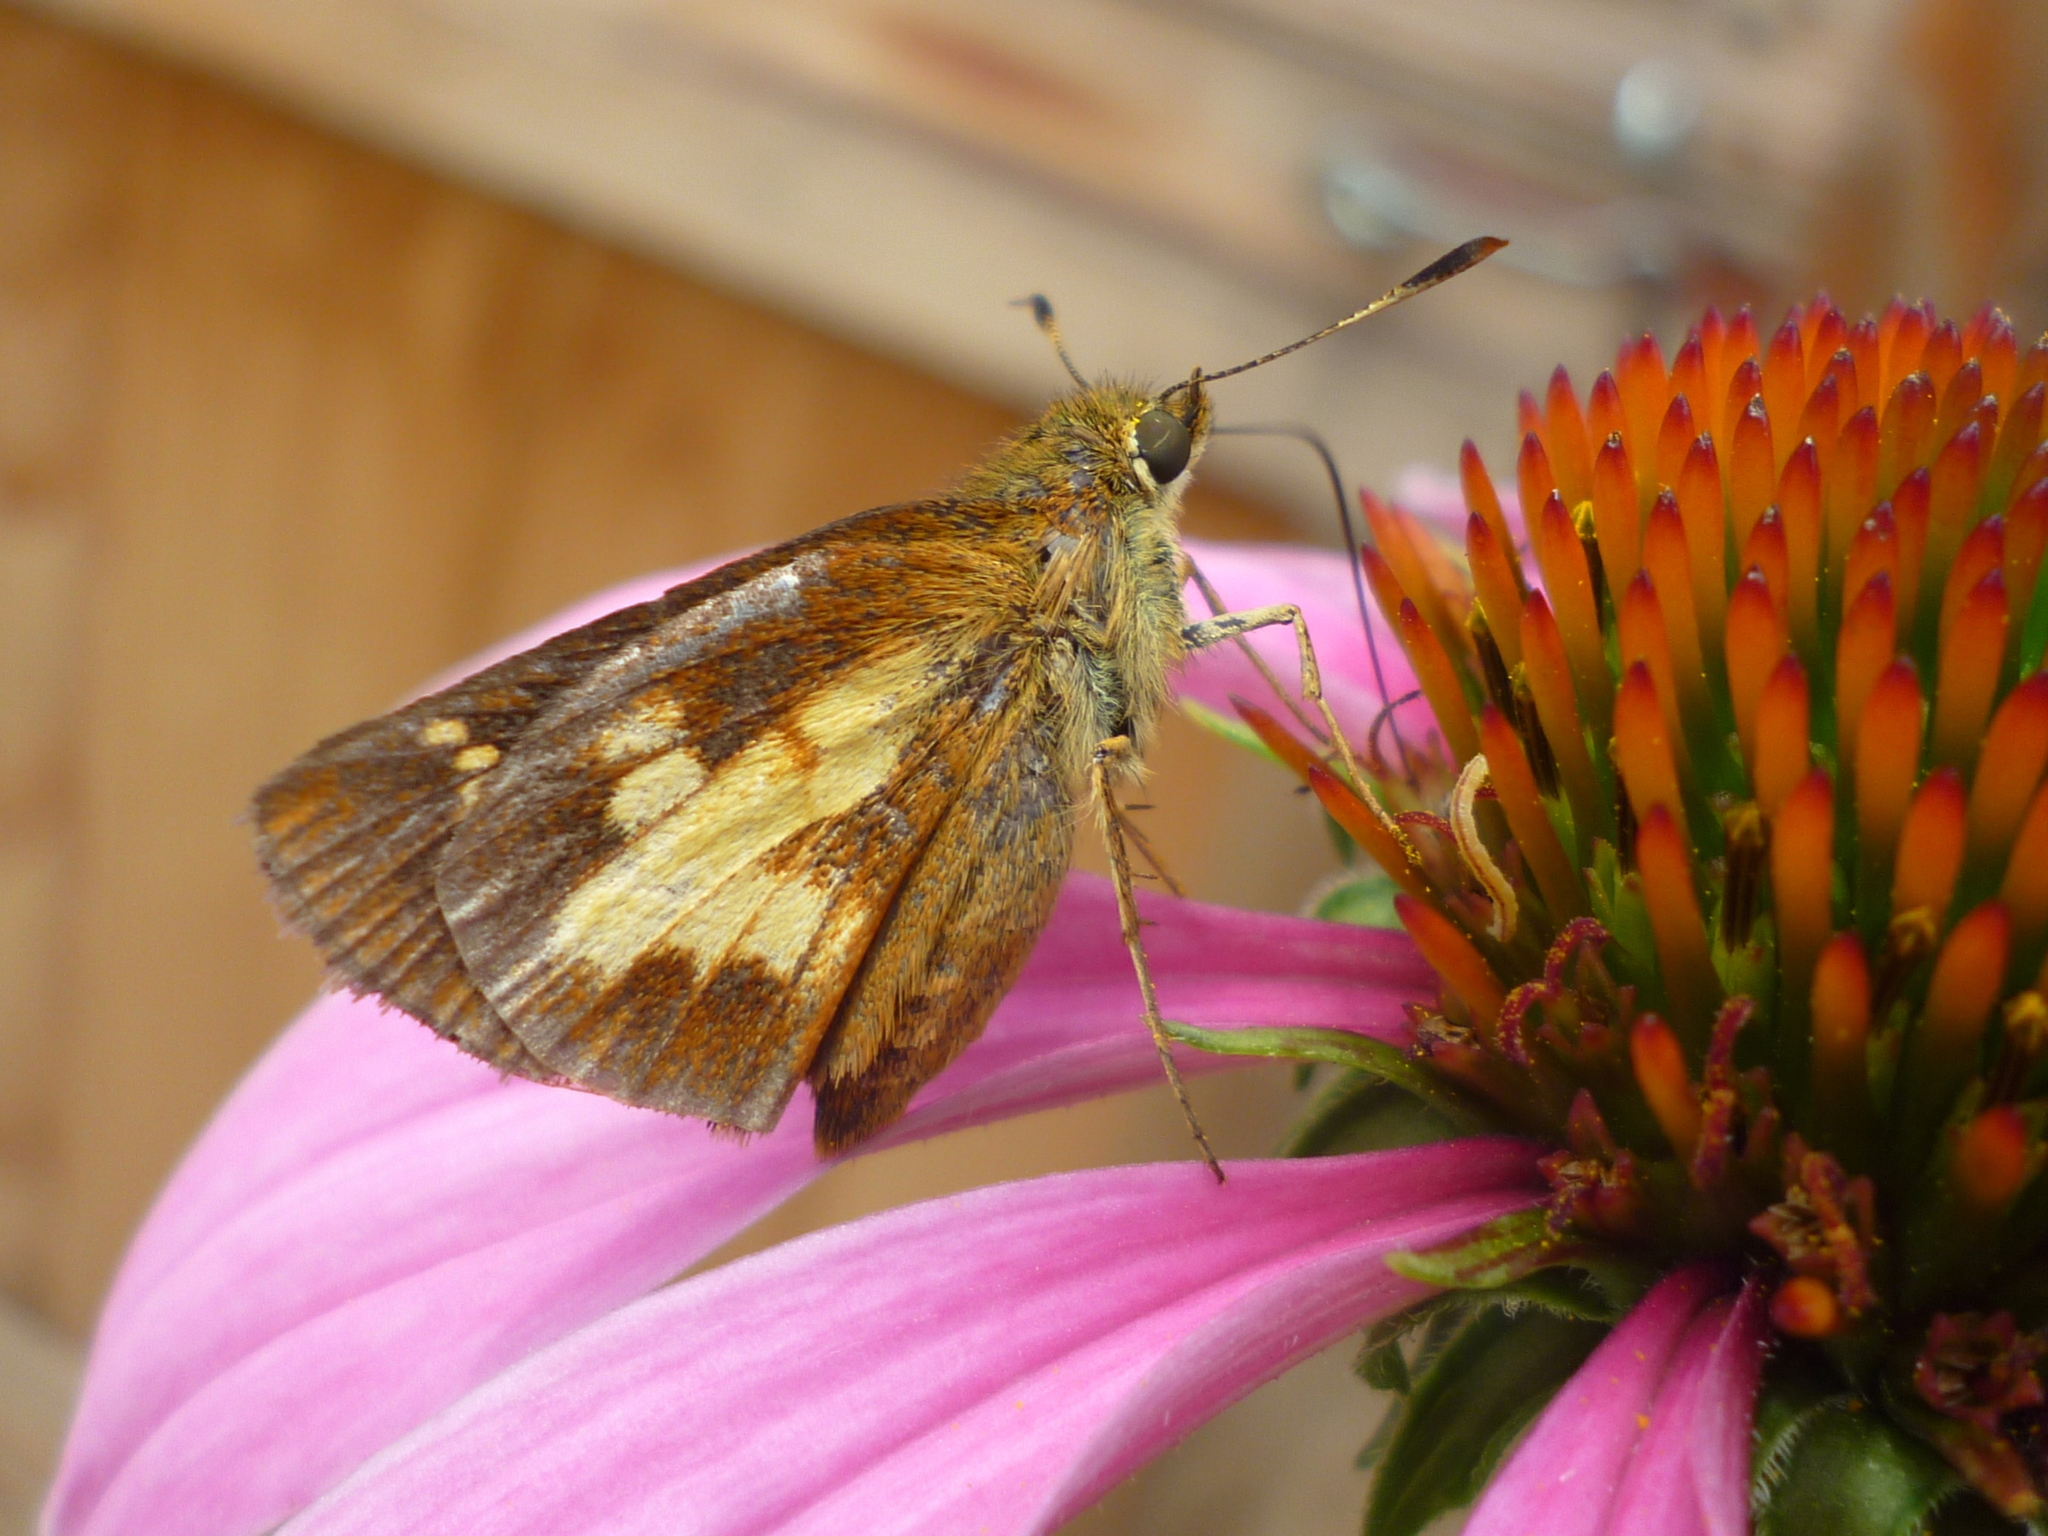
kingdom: Animalia
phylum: Arthropoda
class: Insecta
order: Lepidoptera
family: Hesperiidae
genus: Polites
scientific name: Polites coras
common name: Peck's skipper
